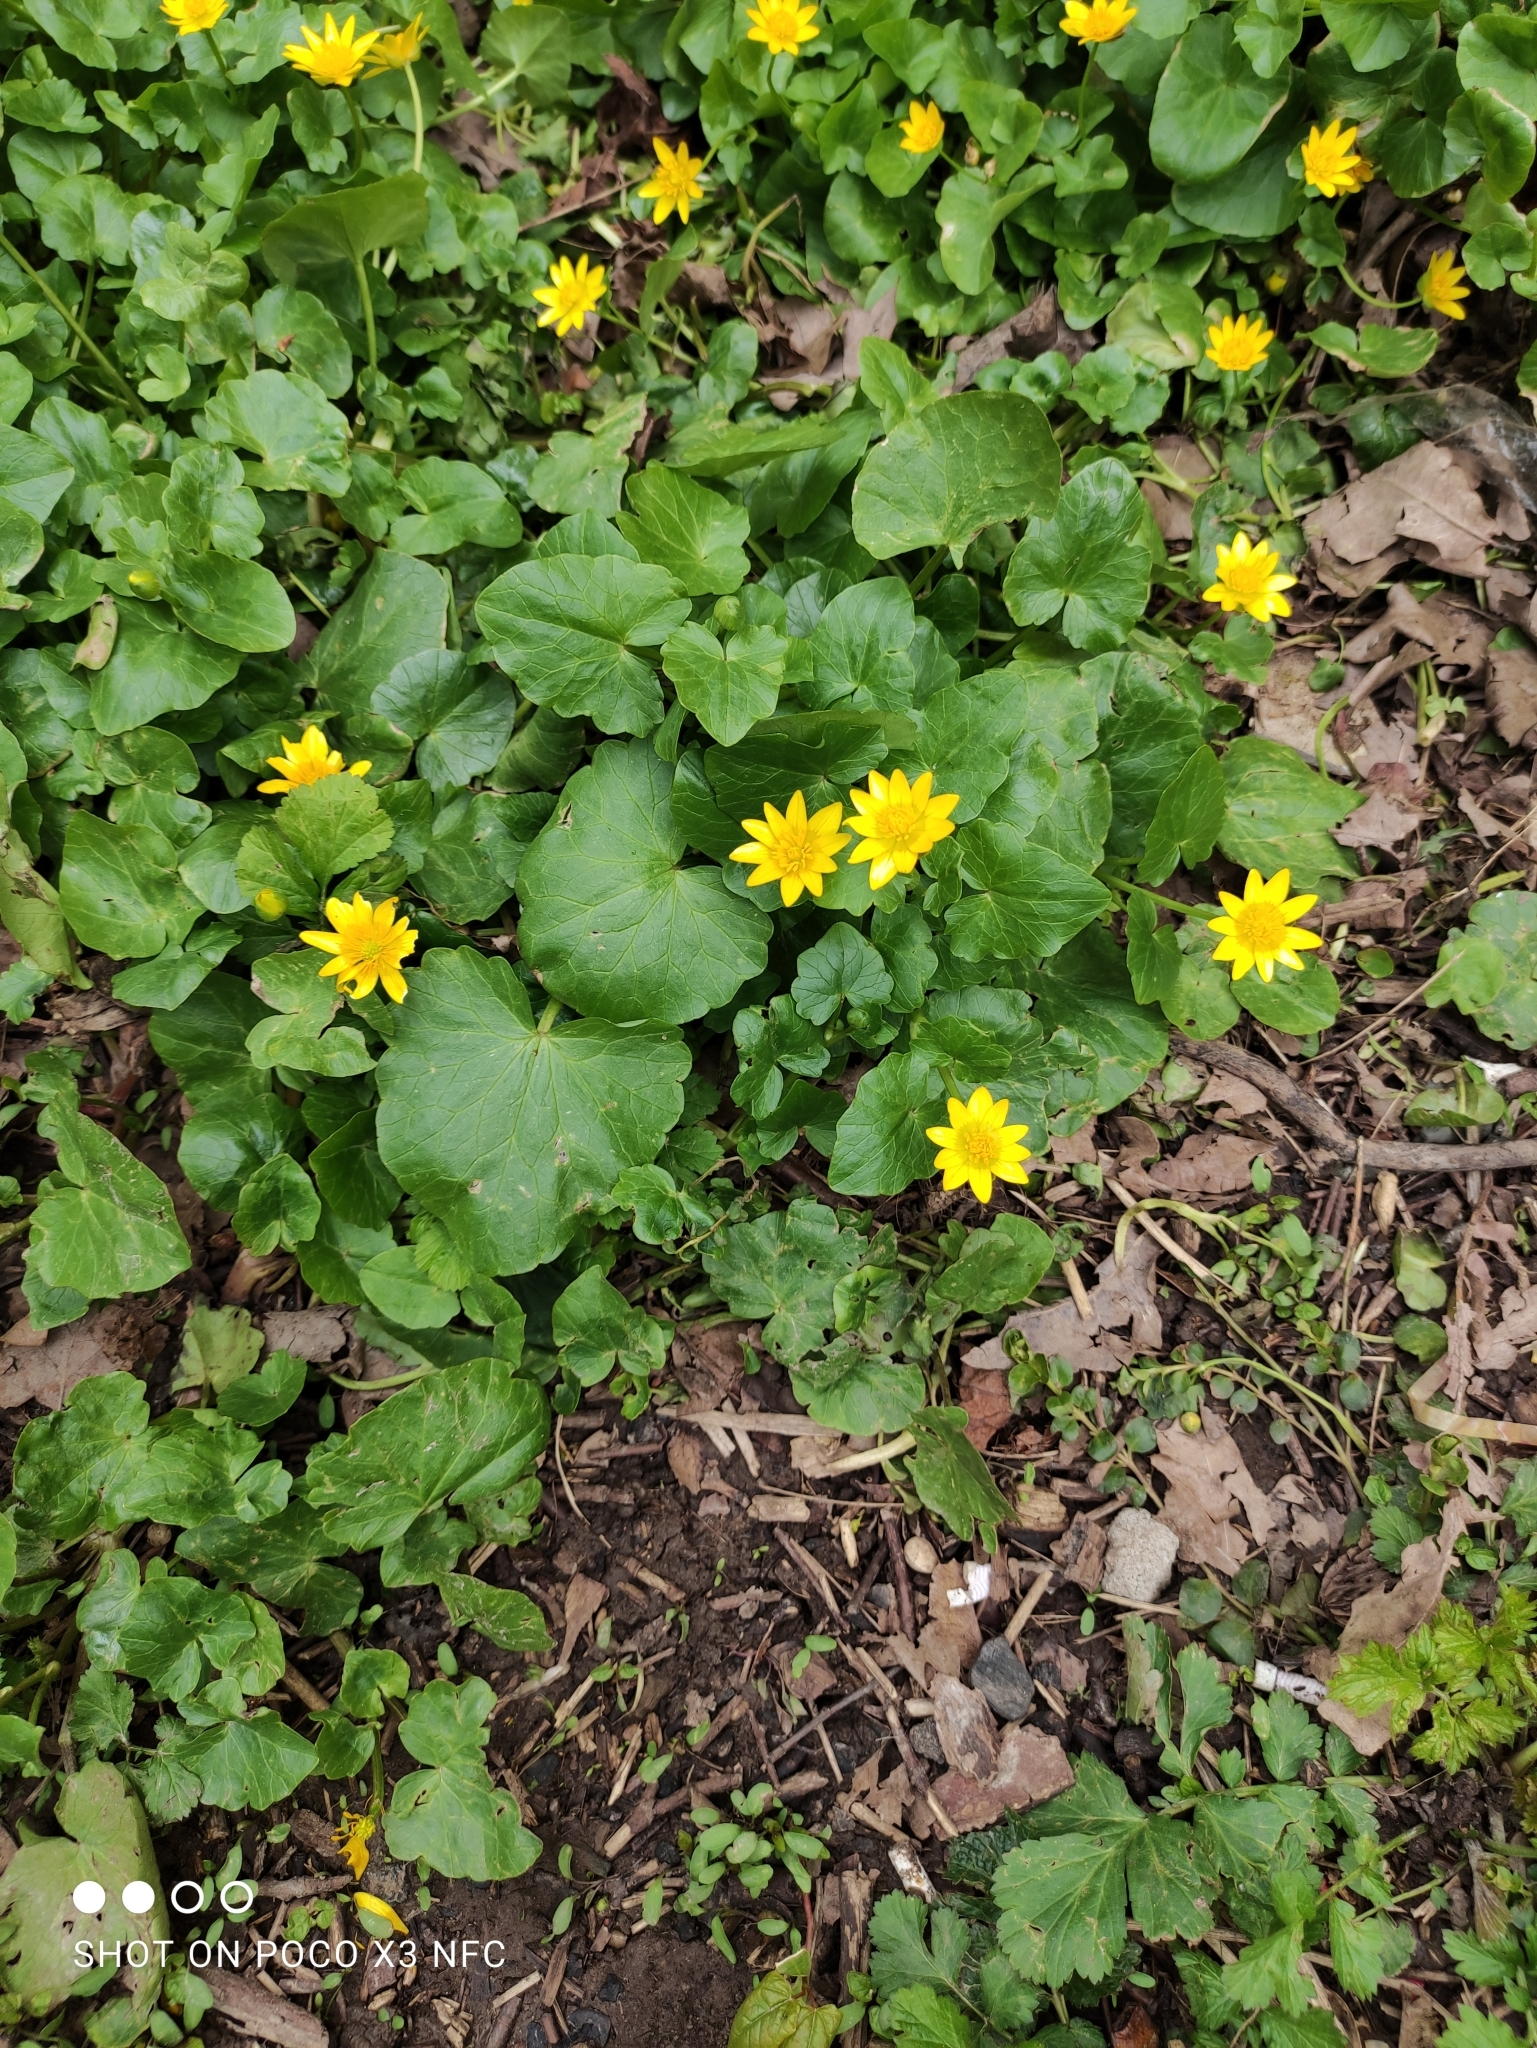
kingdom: Plantae
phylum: Tracheophyta
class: Magnoliopsida
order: Ranunculales
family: Ranunculaceae
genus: Ficaria
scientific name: Ficaria verna
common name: Lesser celandine
